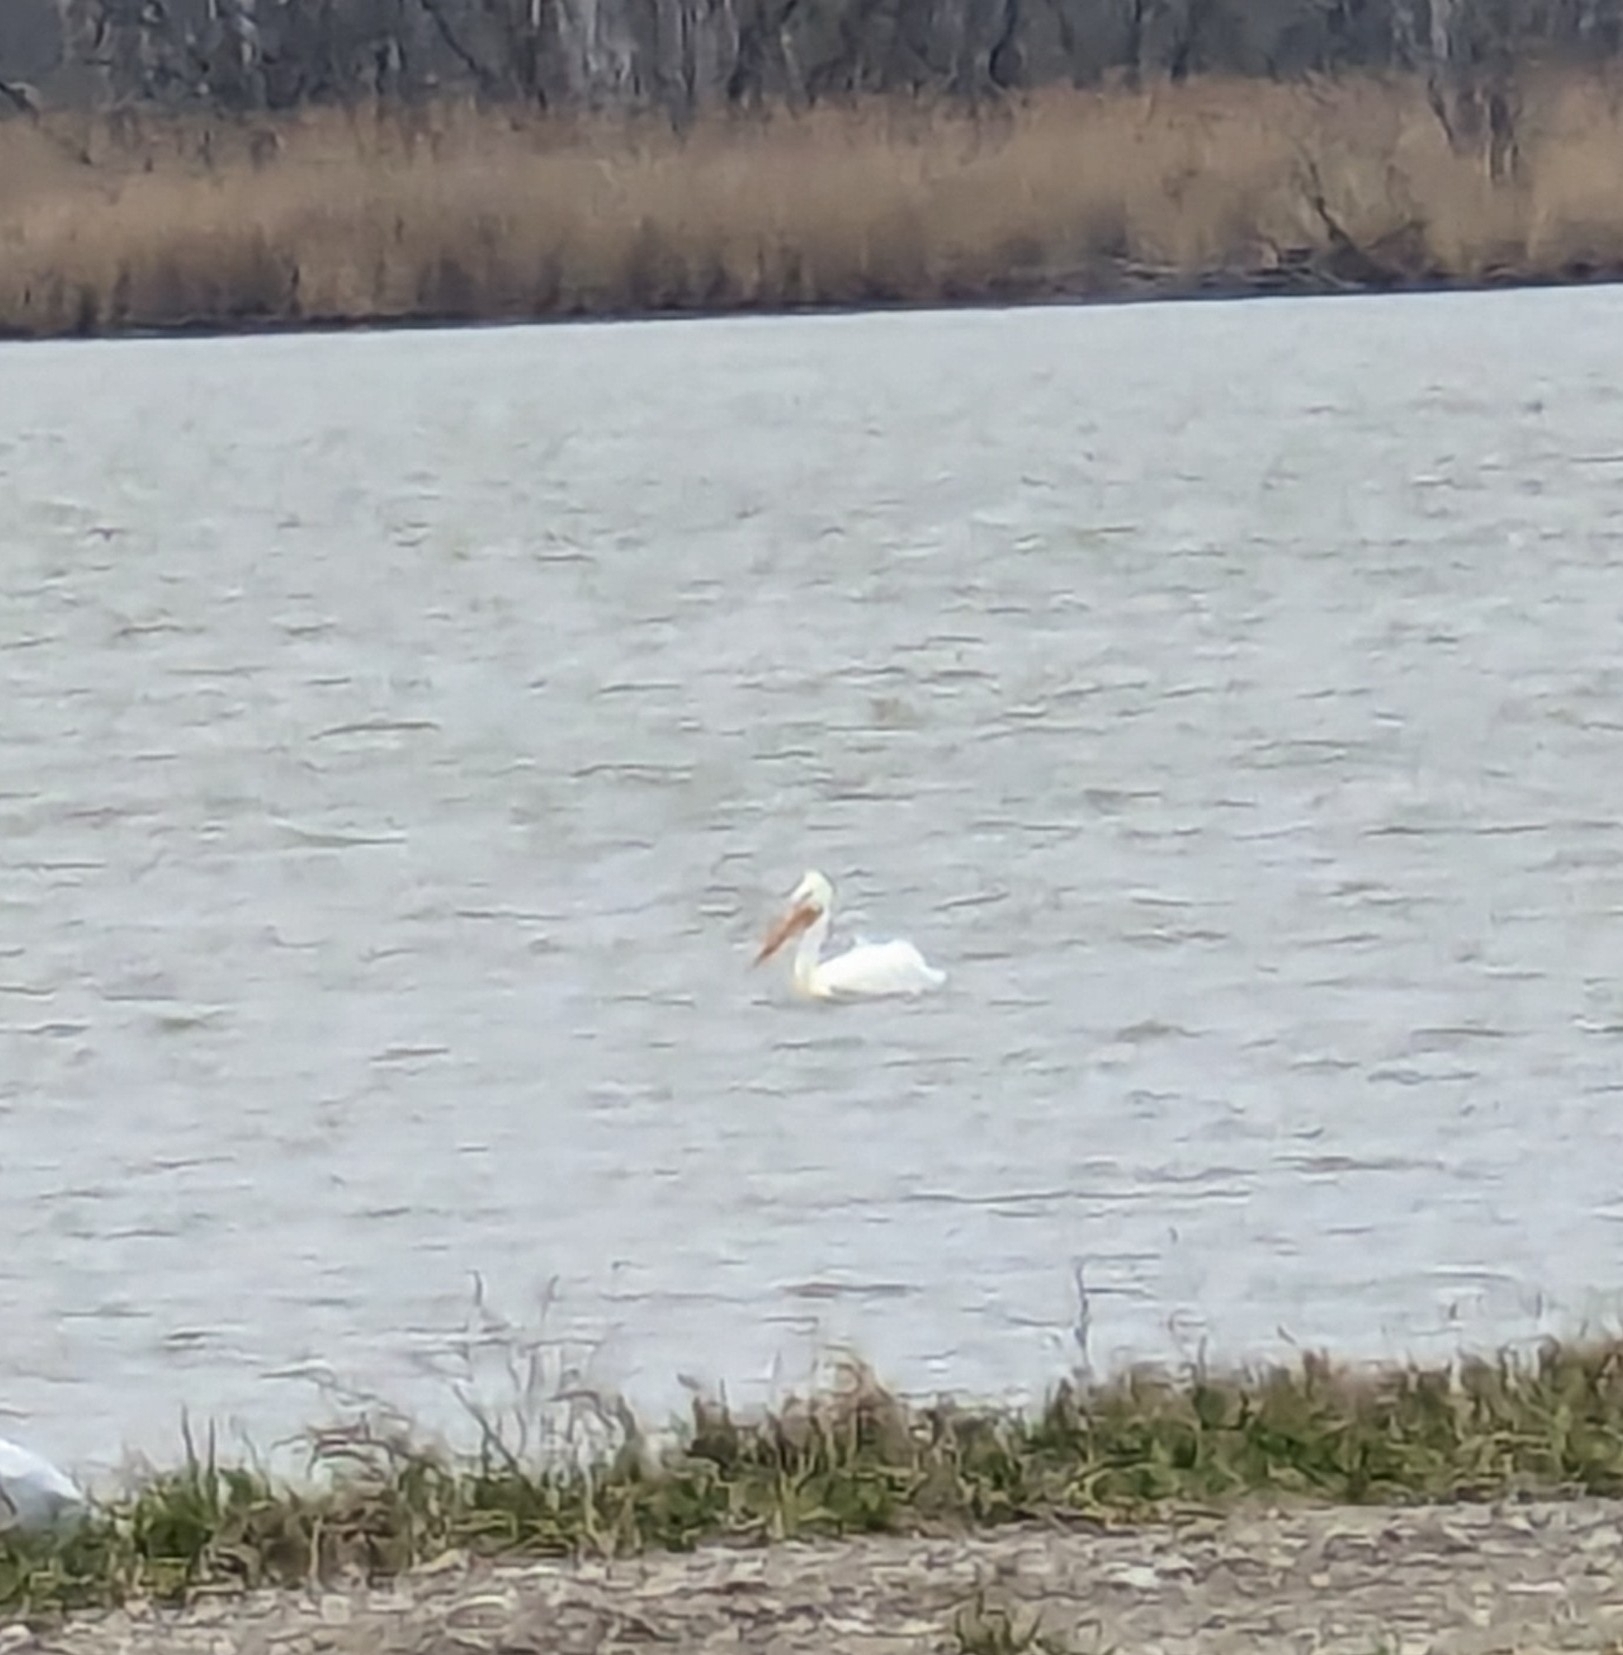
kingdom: Animalia
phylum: Chordata
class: Aves
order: Pelecaniformes
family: Pelecanidae
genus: Pelecanus
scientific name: Pelecanus erythrorhynchos
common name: American white pelican
